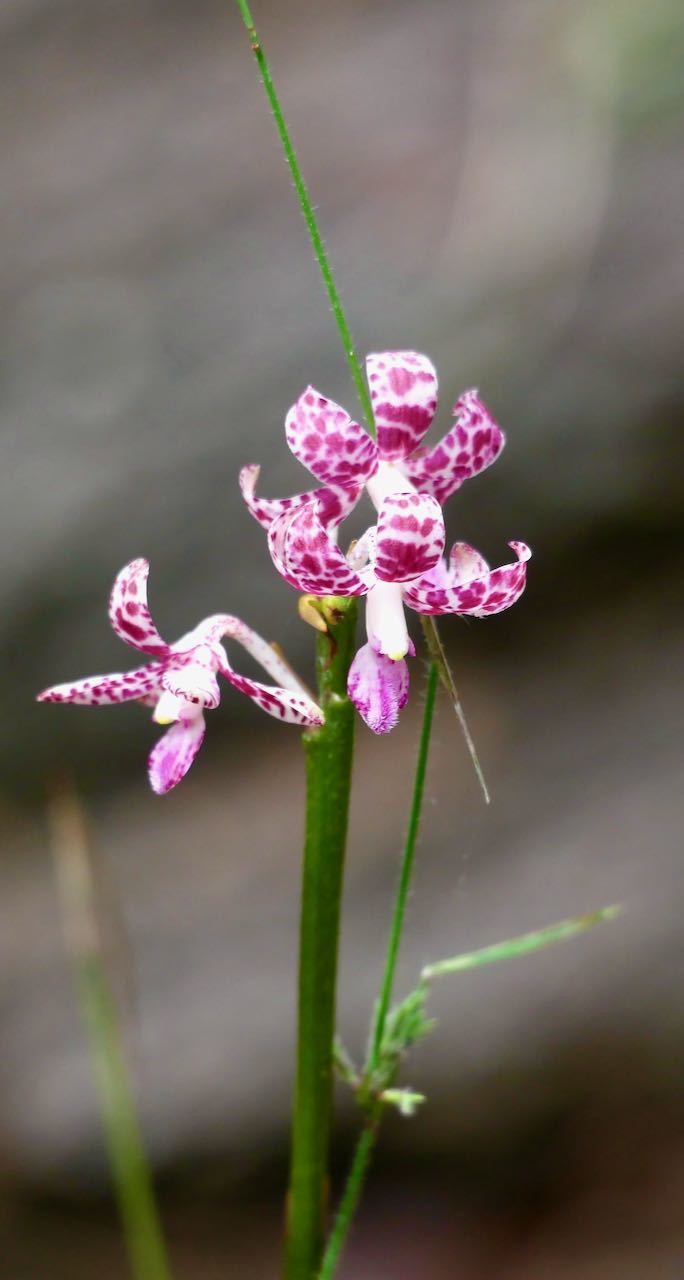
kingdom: Plantae
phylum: Tracheophyta
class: Liliopsida
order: Asparagales
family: Orchidaceae
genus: Dipodium
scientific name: Dipodium variegatum
